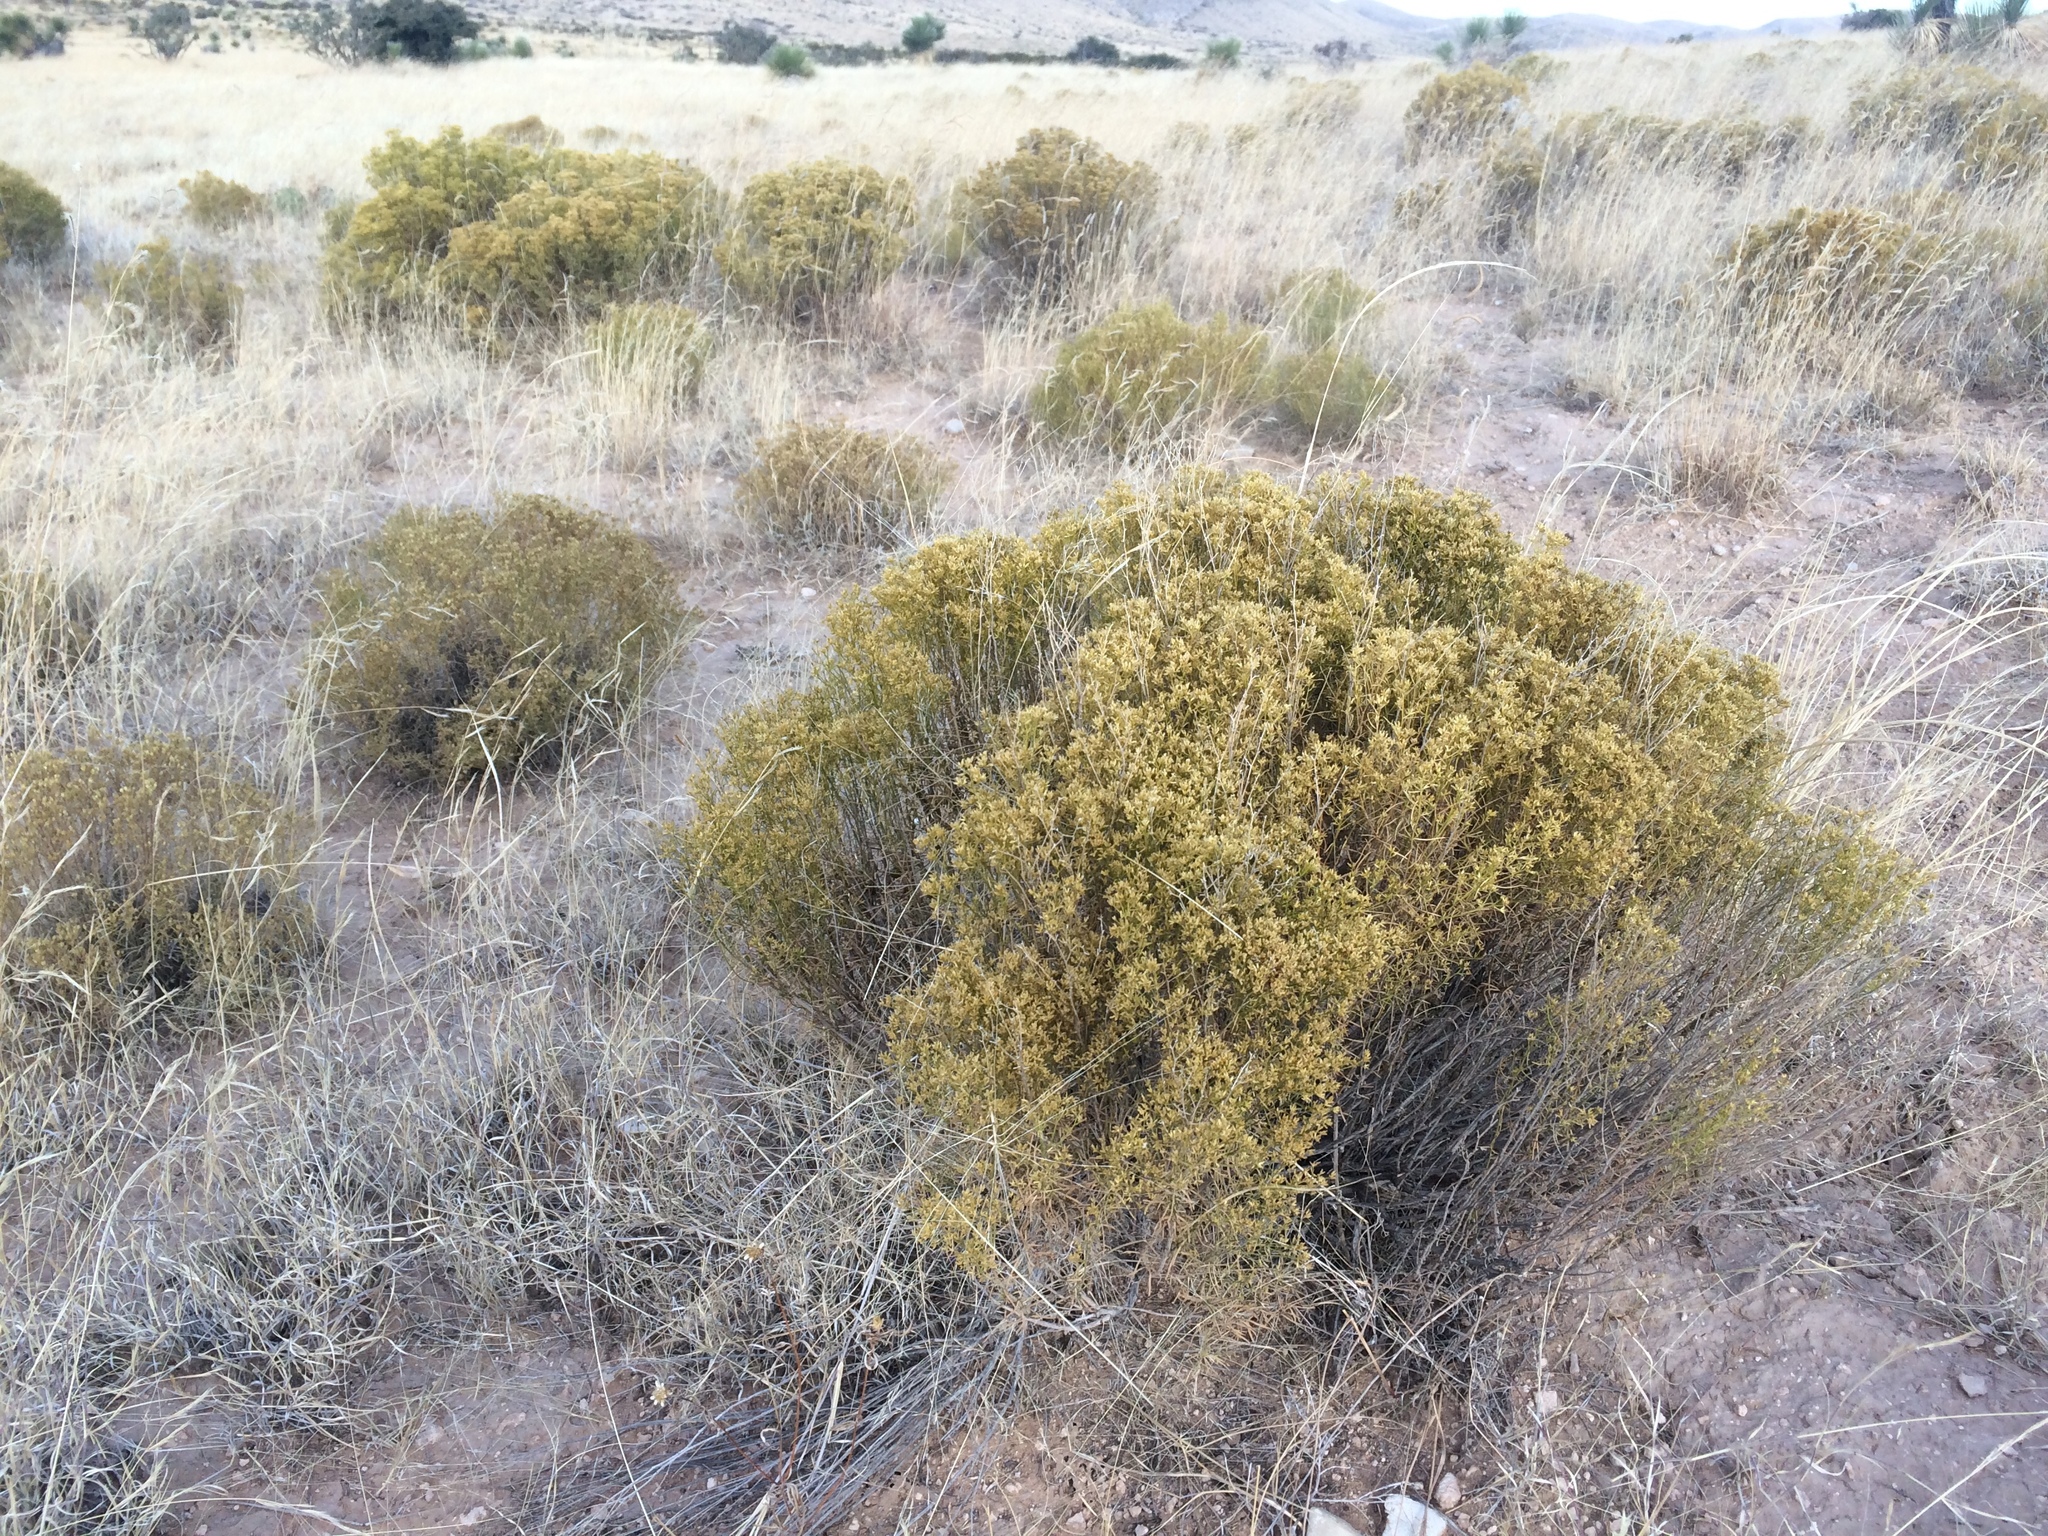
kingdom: Plantae
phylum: Tracheophyta
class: Magnoliopsida
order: Asterales
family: Asteraceae
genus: Gutierrezia
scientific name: Gutierrezia microcephala
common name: Thread snakeweed
